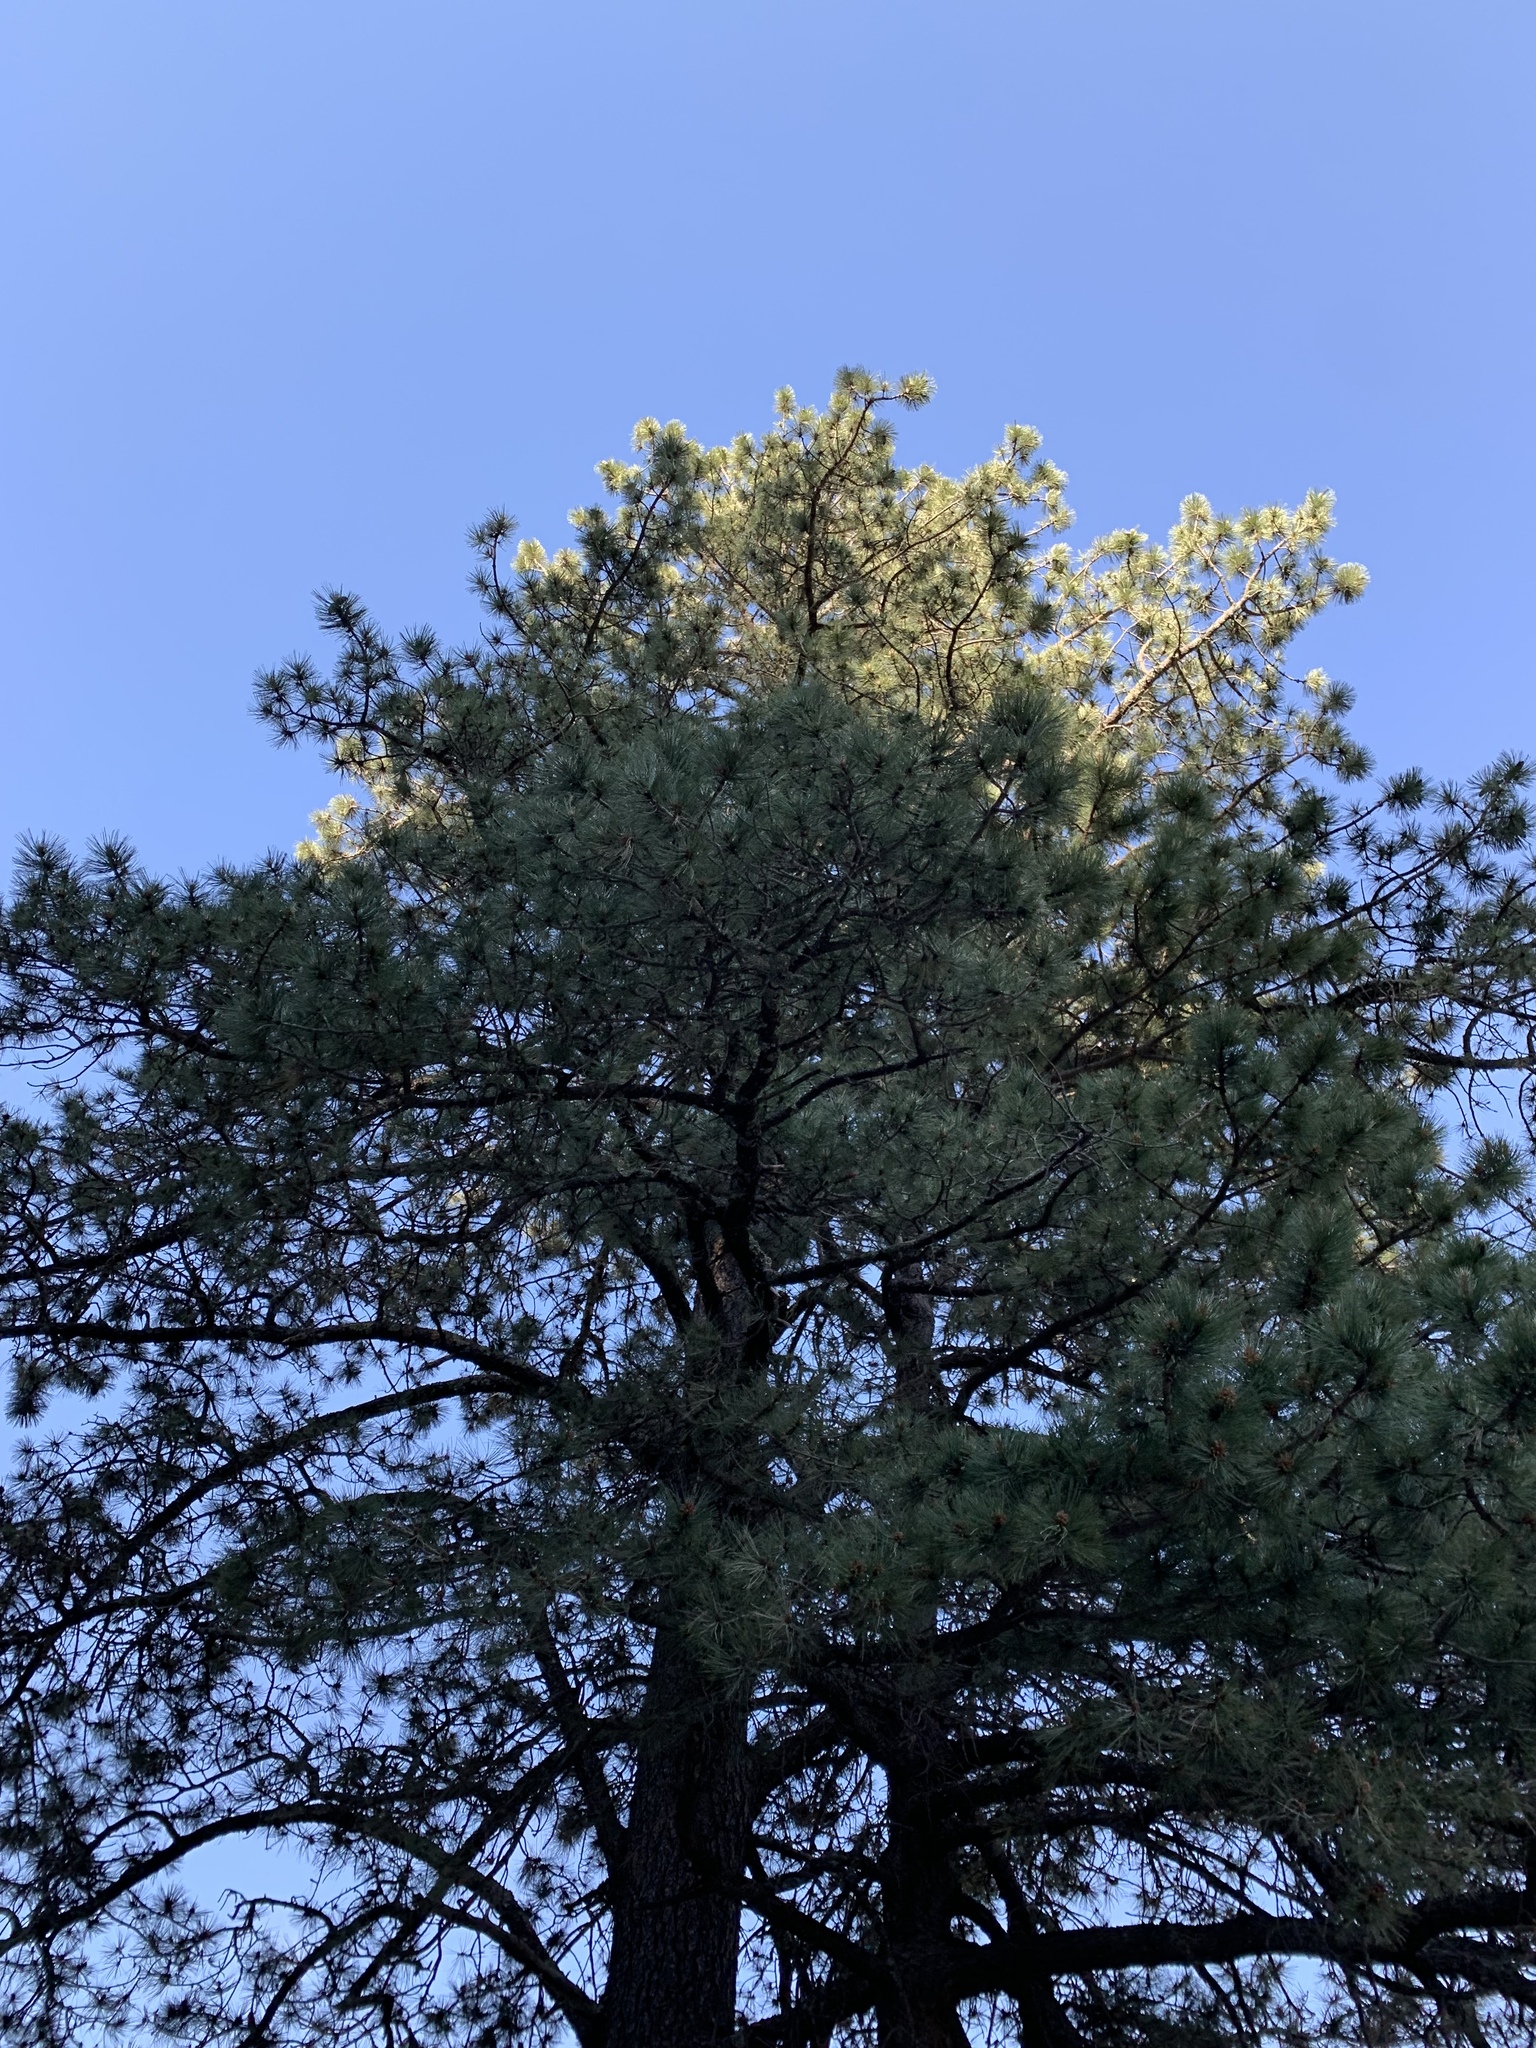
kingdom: Plantae
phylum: Tracheophyta
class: Pinopsida
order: Pinales
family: Pinaceae
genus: Pinus
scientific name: Pinus ponderosa
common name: Western yellow-pine
